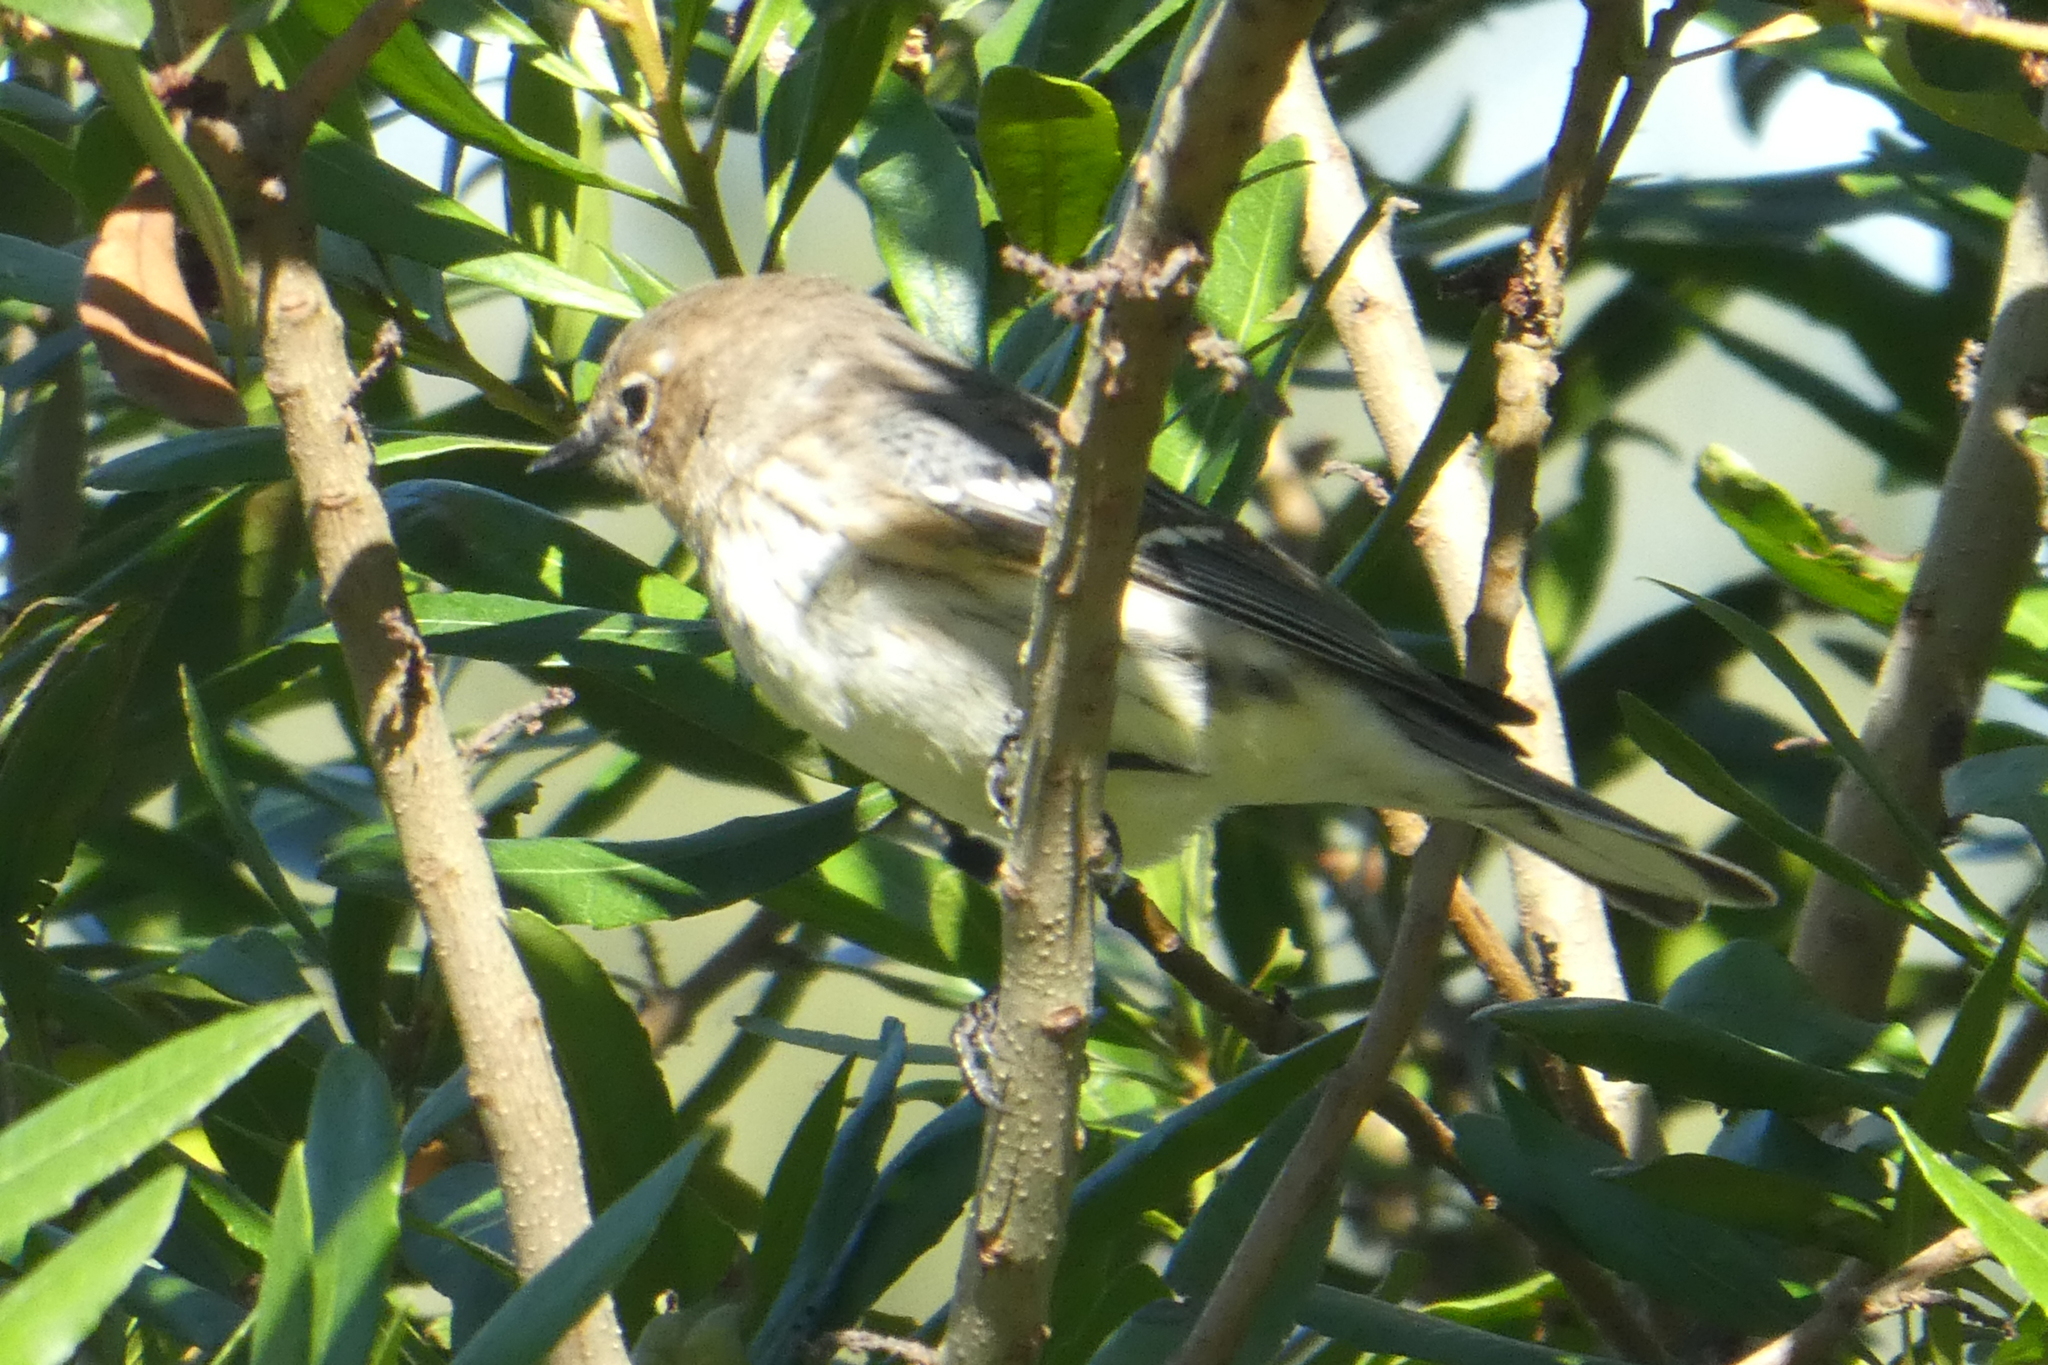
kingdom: Animalia
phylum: Chordata
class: Aves
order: Passeriformes
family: Parulidae
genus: Setophaga
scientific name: Setophaga coronata
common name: Myrtle warbler
